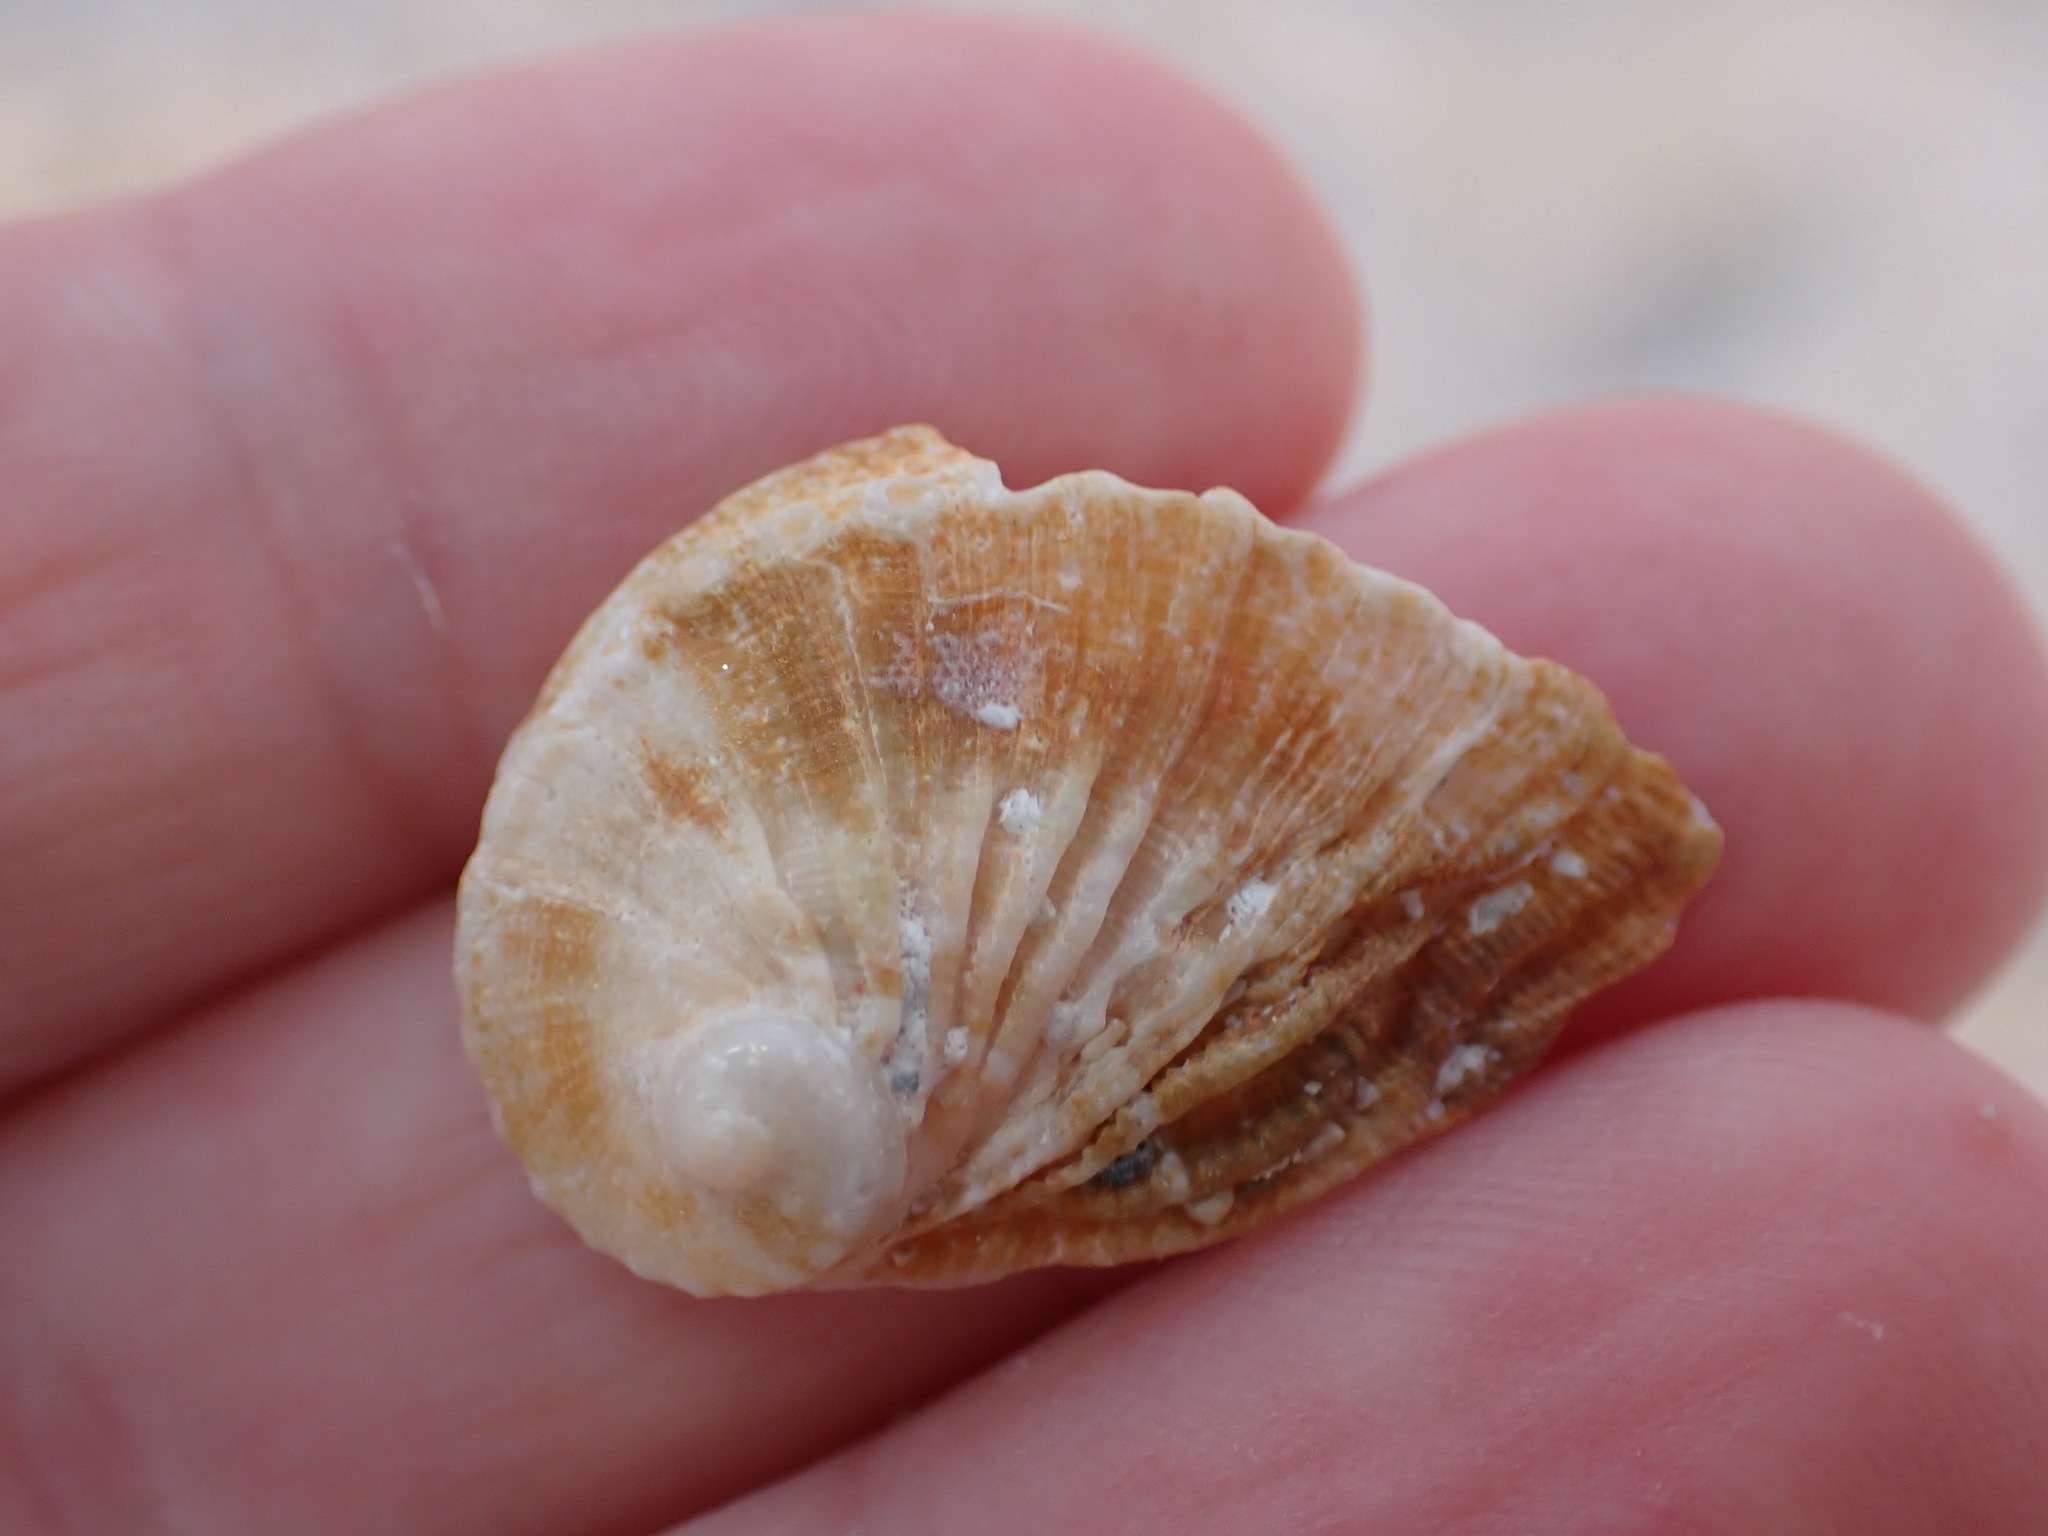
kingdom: Animalia
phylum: Mollusca
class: Gastropoda
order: Lepetellida
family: Haliotidae
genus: Haliotis
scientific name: Haliotis tuberculata
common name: Green ormer
